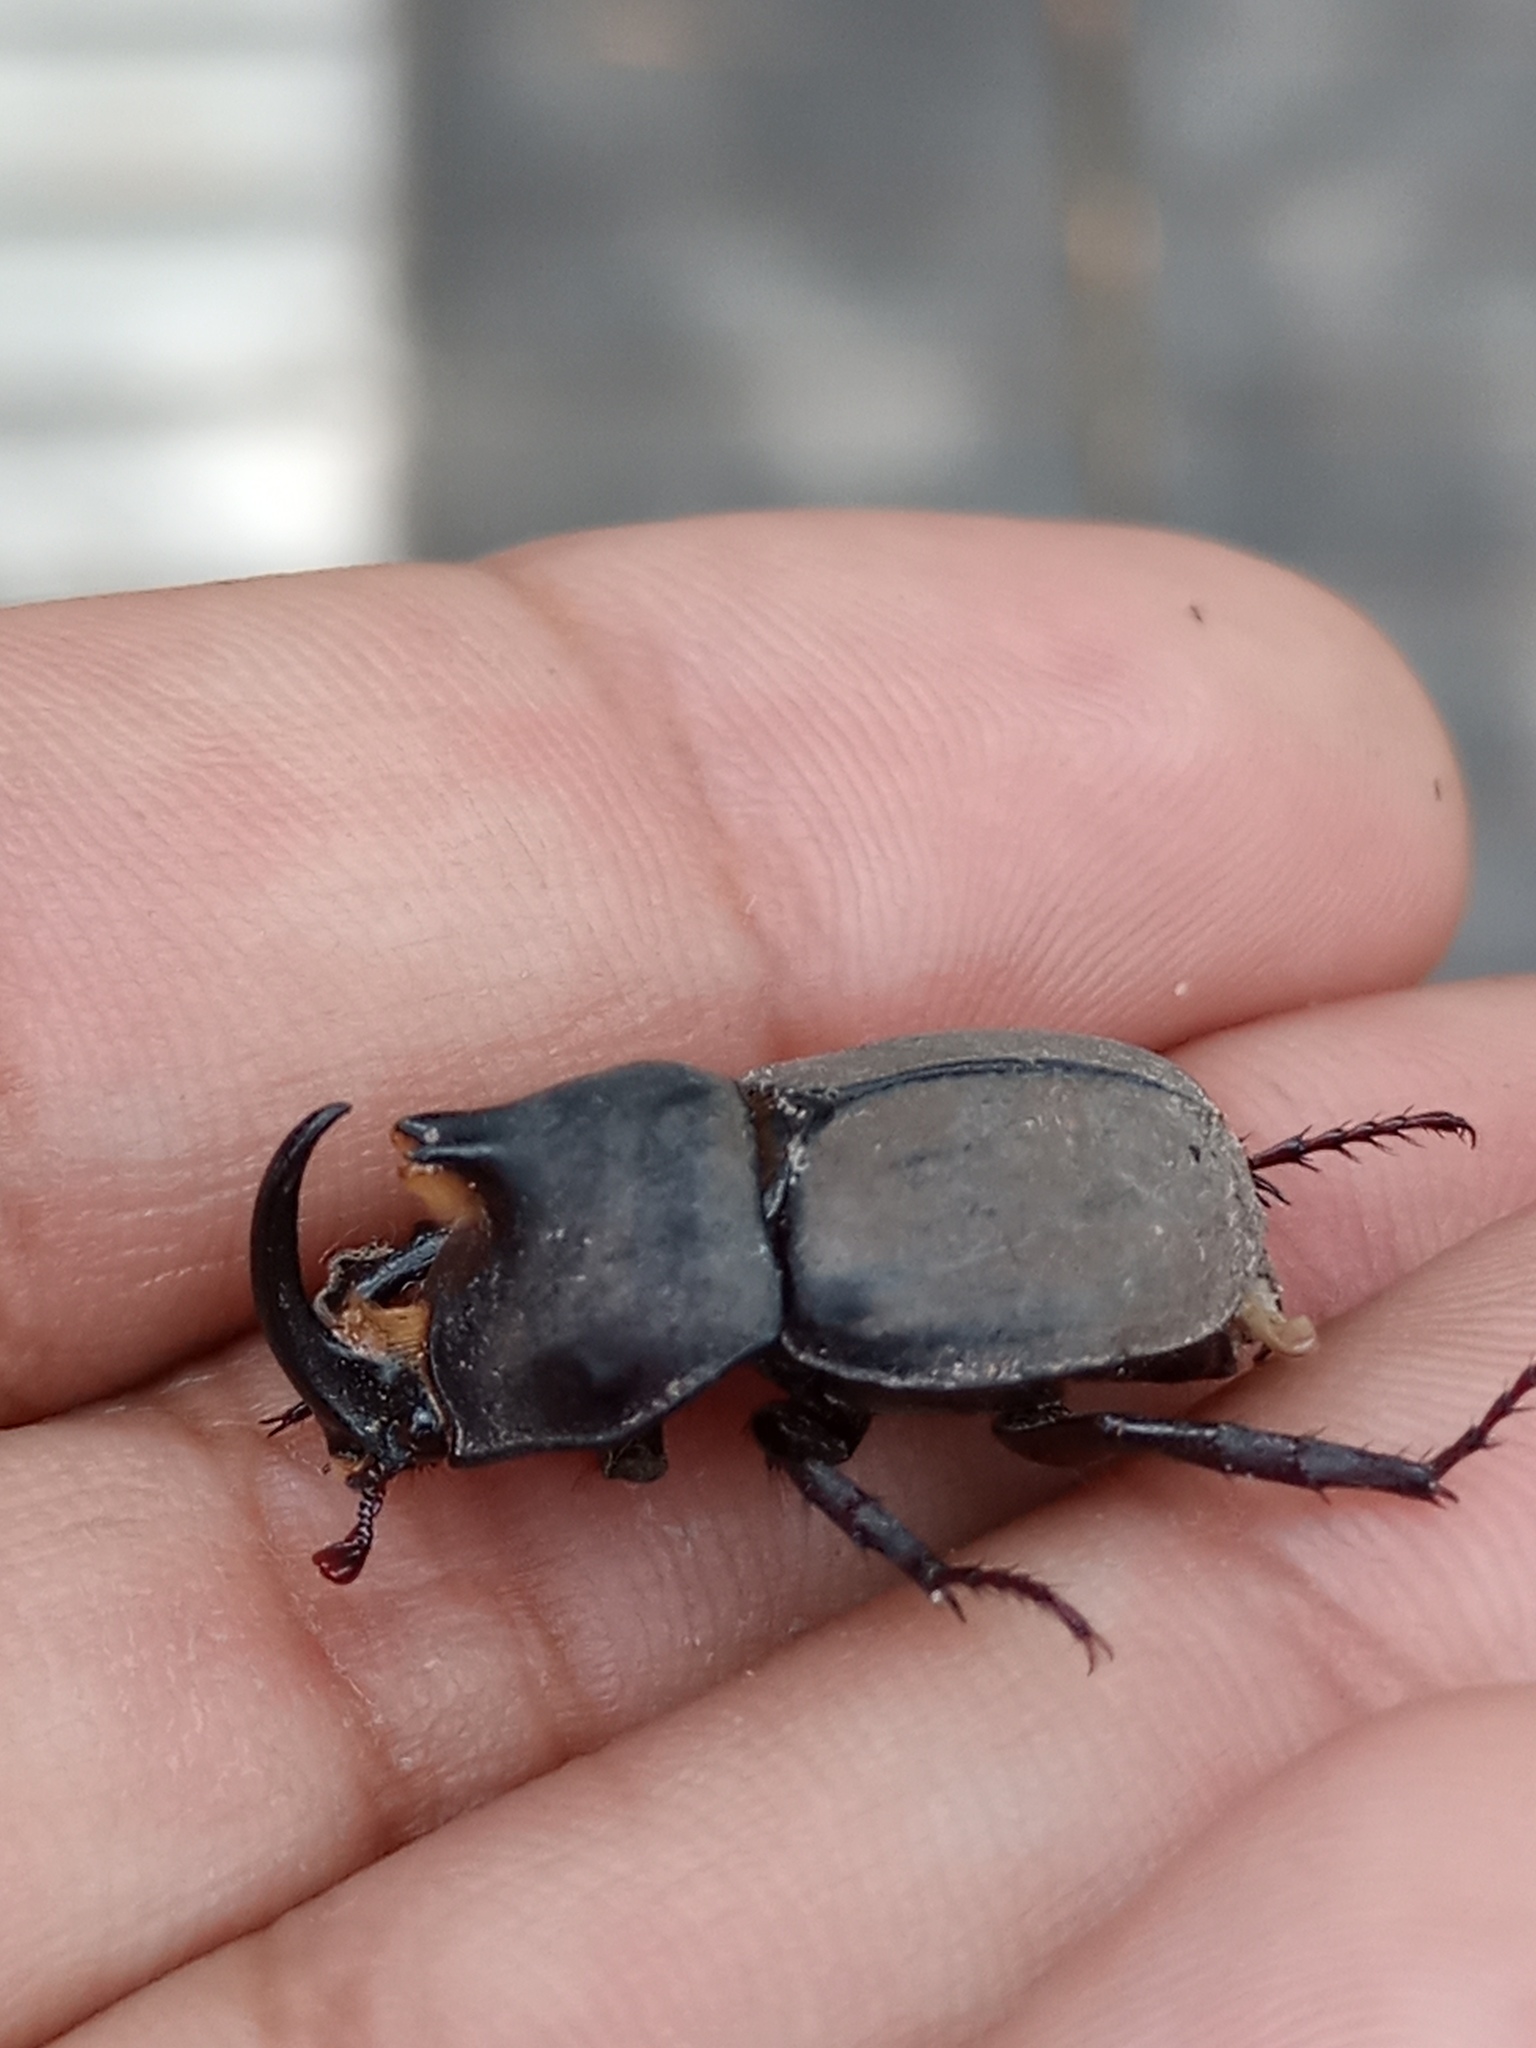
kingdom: Animalia
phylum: Arthropoda
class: Insecta
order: Coleoptera
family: Scarabaeidae
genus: Diloboderus
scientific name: Diloboderus abderus
